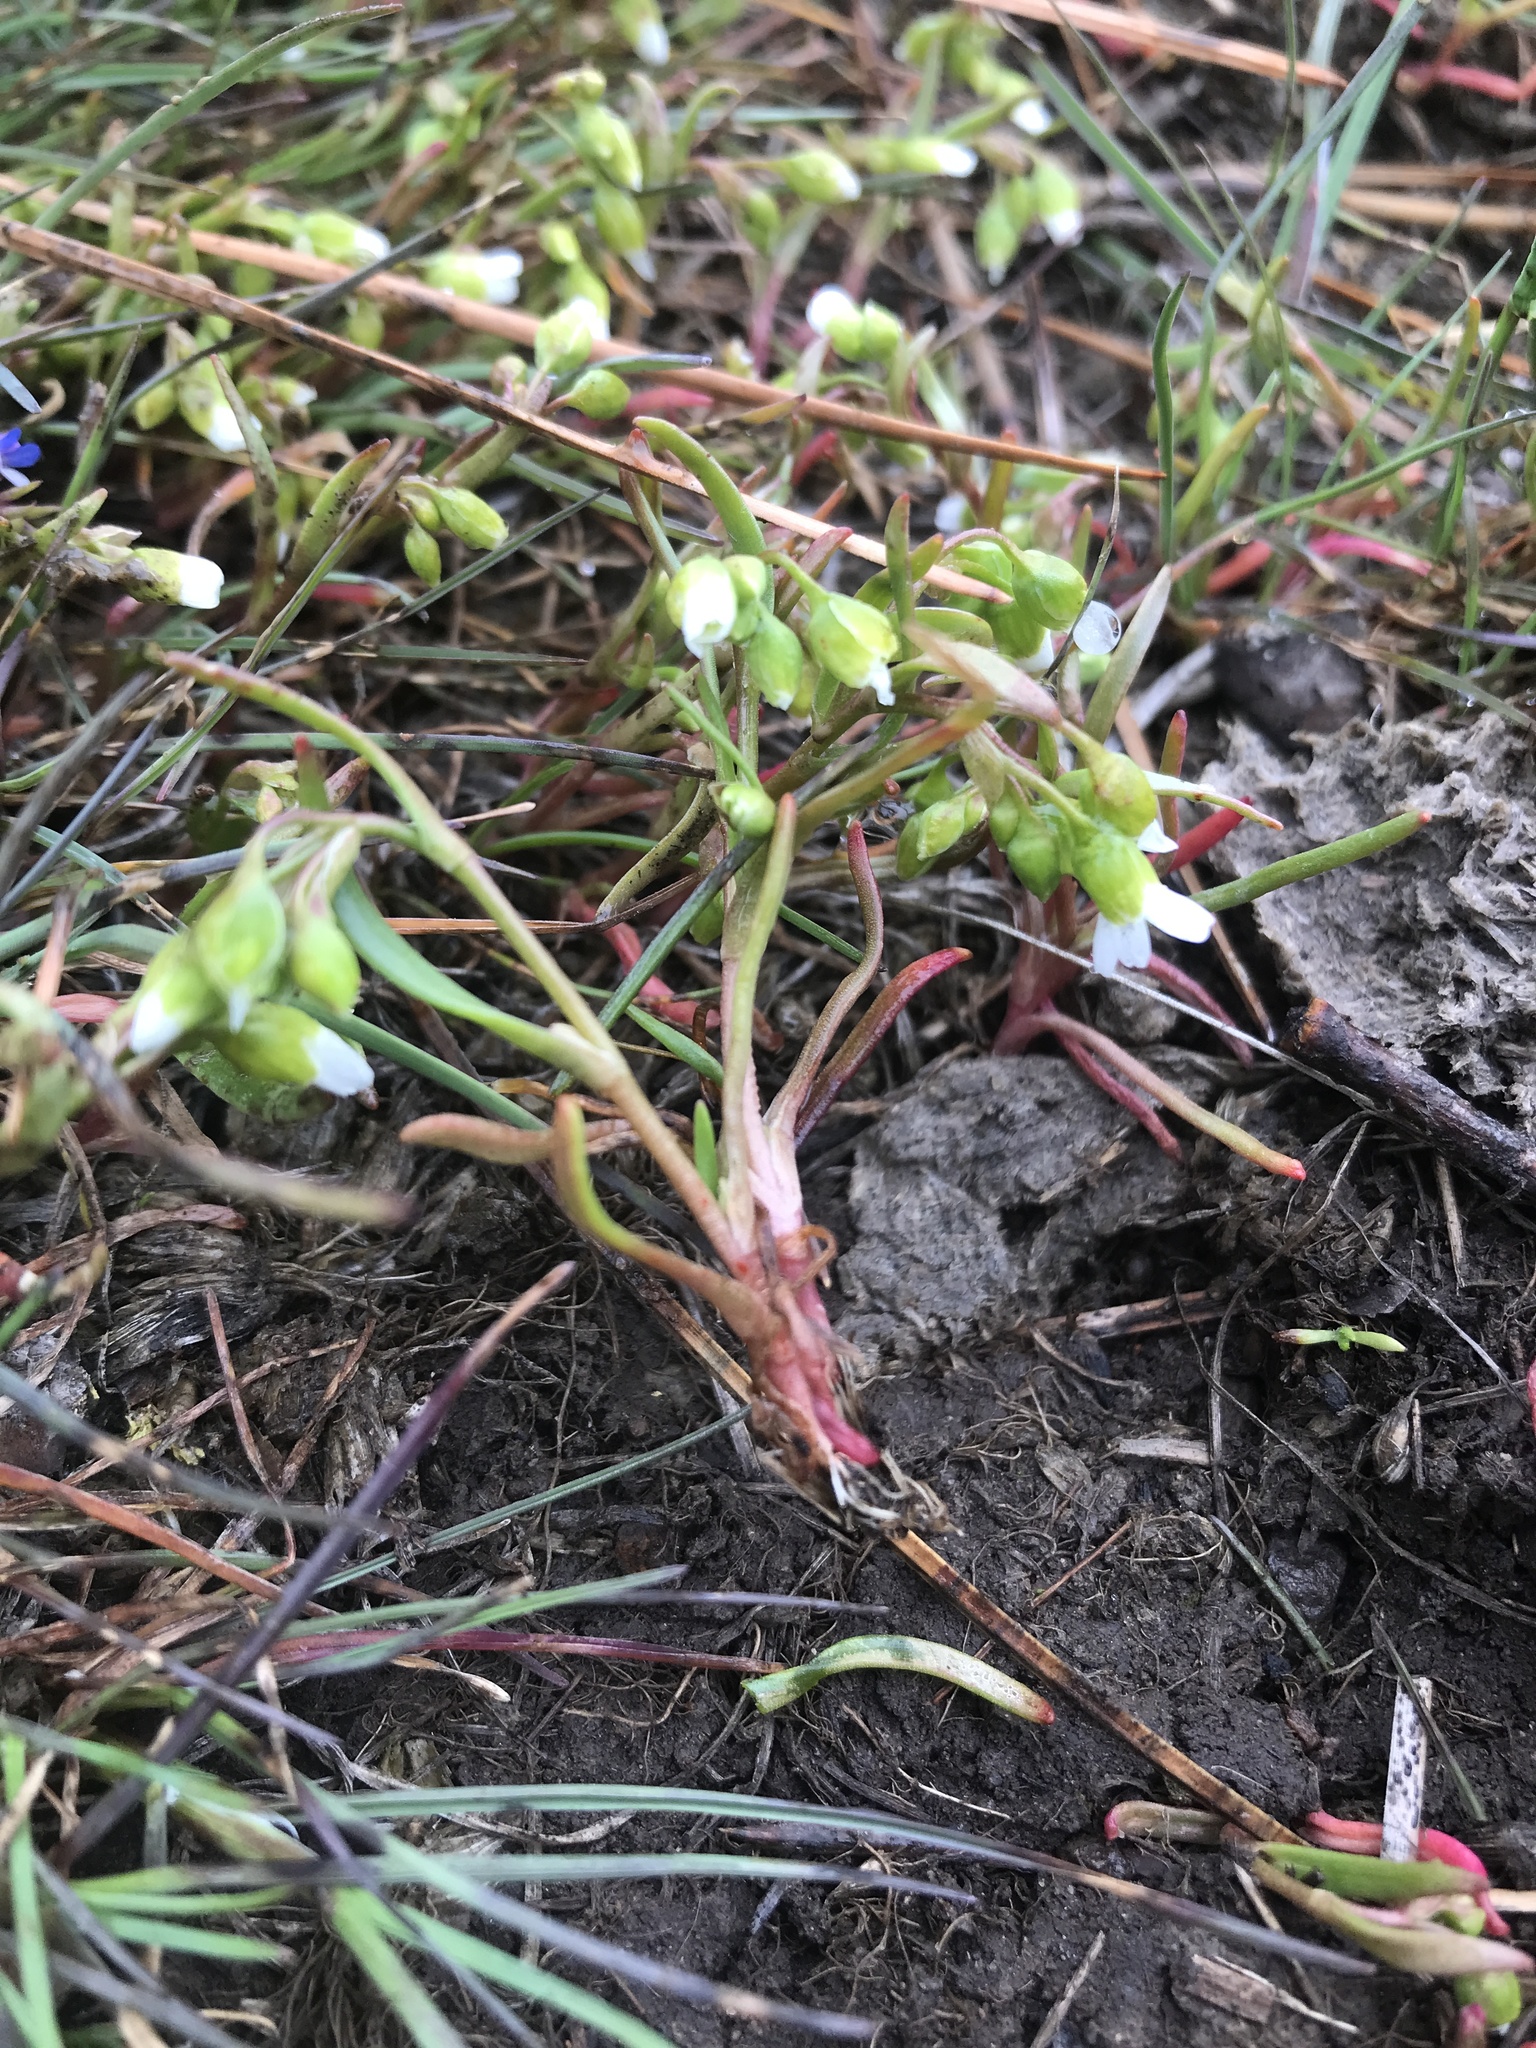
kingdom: Plantae
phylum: Tracheophyta
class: Magnoliopsida
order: Caryophyllales
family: Montiaceae
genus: Montia
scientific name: Montia linearis
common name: Narrow-leaf montia
